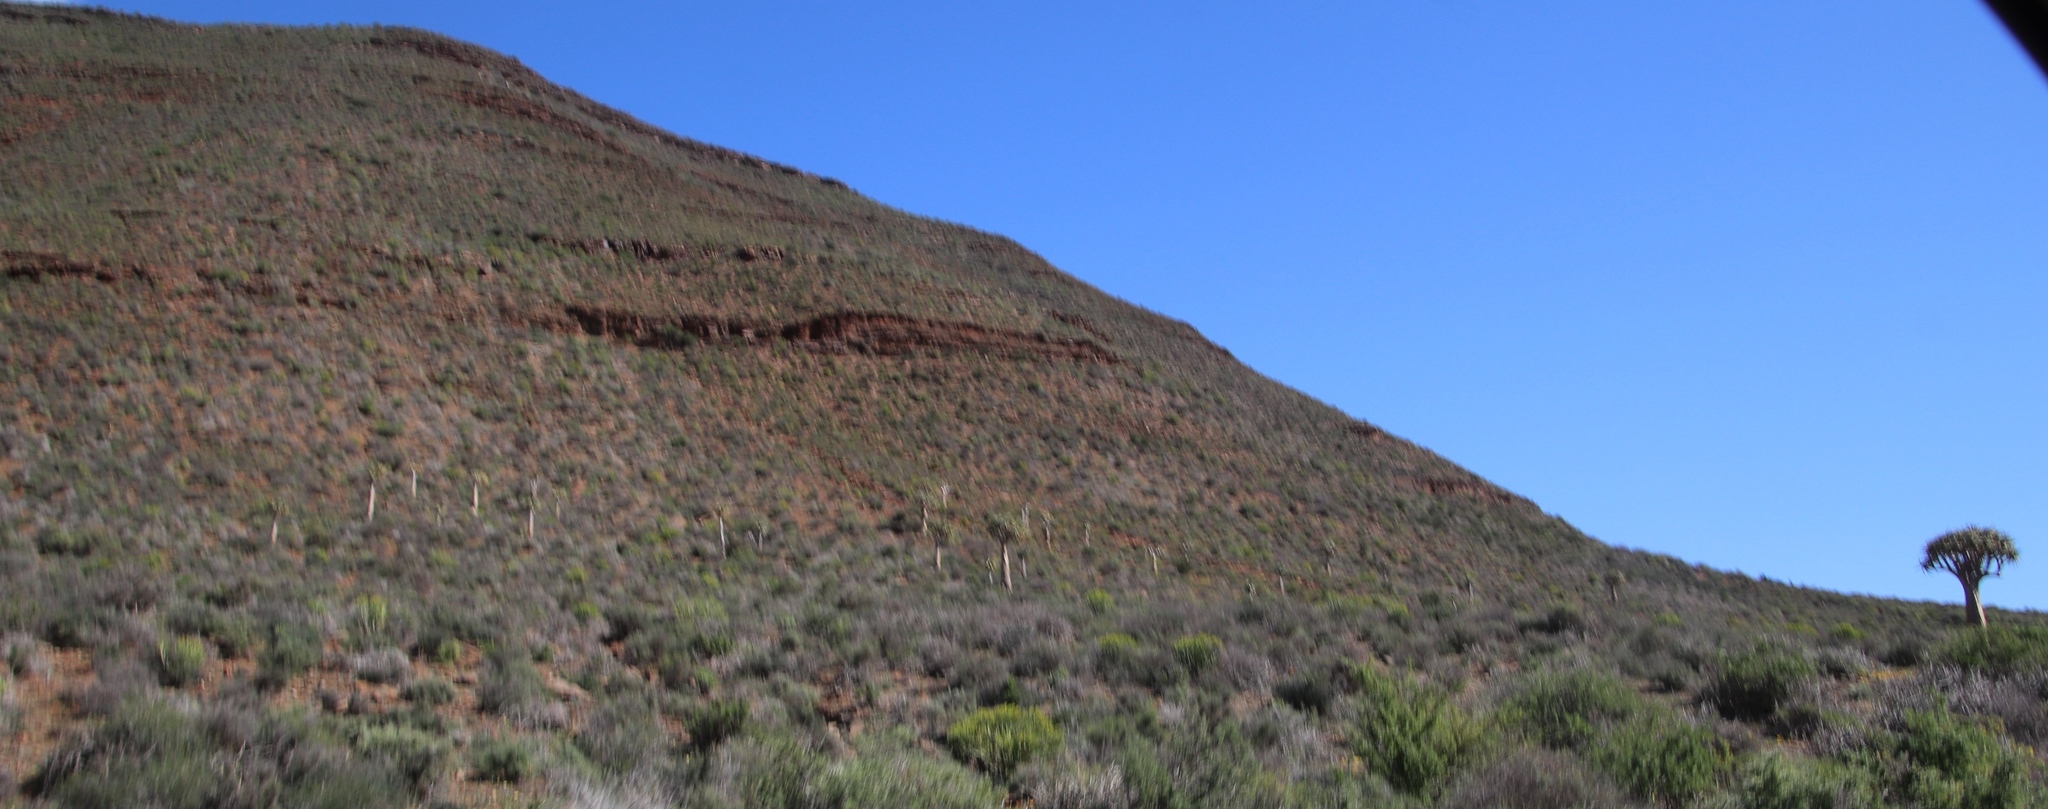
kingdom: Plantae
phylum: Tracheophyta
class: Liliopsida
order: Asparagales
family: Asphodelaceae
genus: Aloidendron
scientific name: Aloidendron dichotomum
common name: Quiver tree
